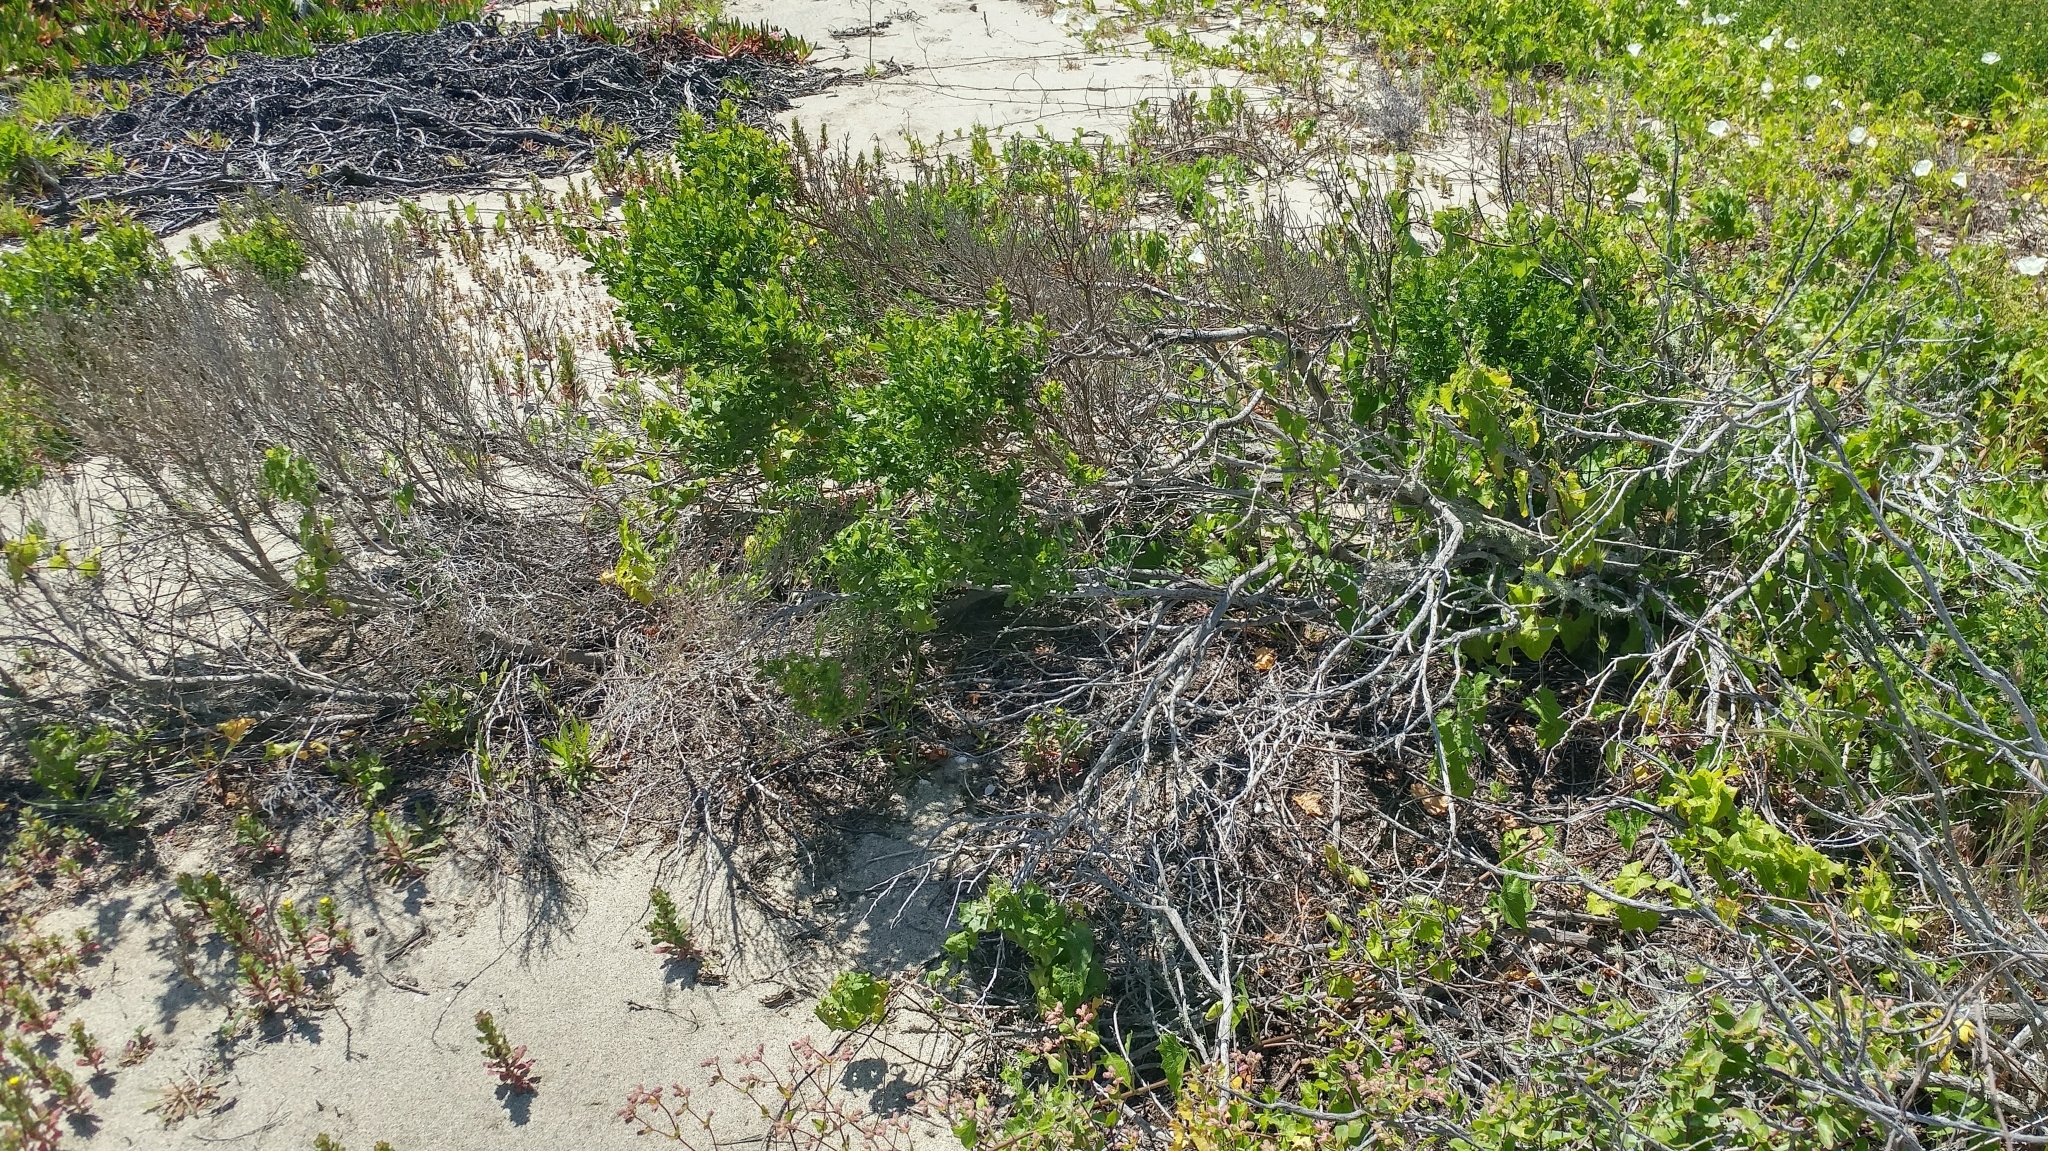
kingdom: Plantae
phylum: Tracheophyta
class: Magnoliopsida
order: Asterales
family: Asteraceae
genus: Baccharis
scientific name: Baccharis pilularis
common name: Coyotebrush
